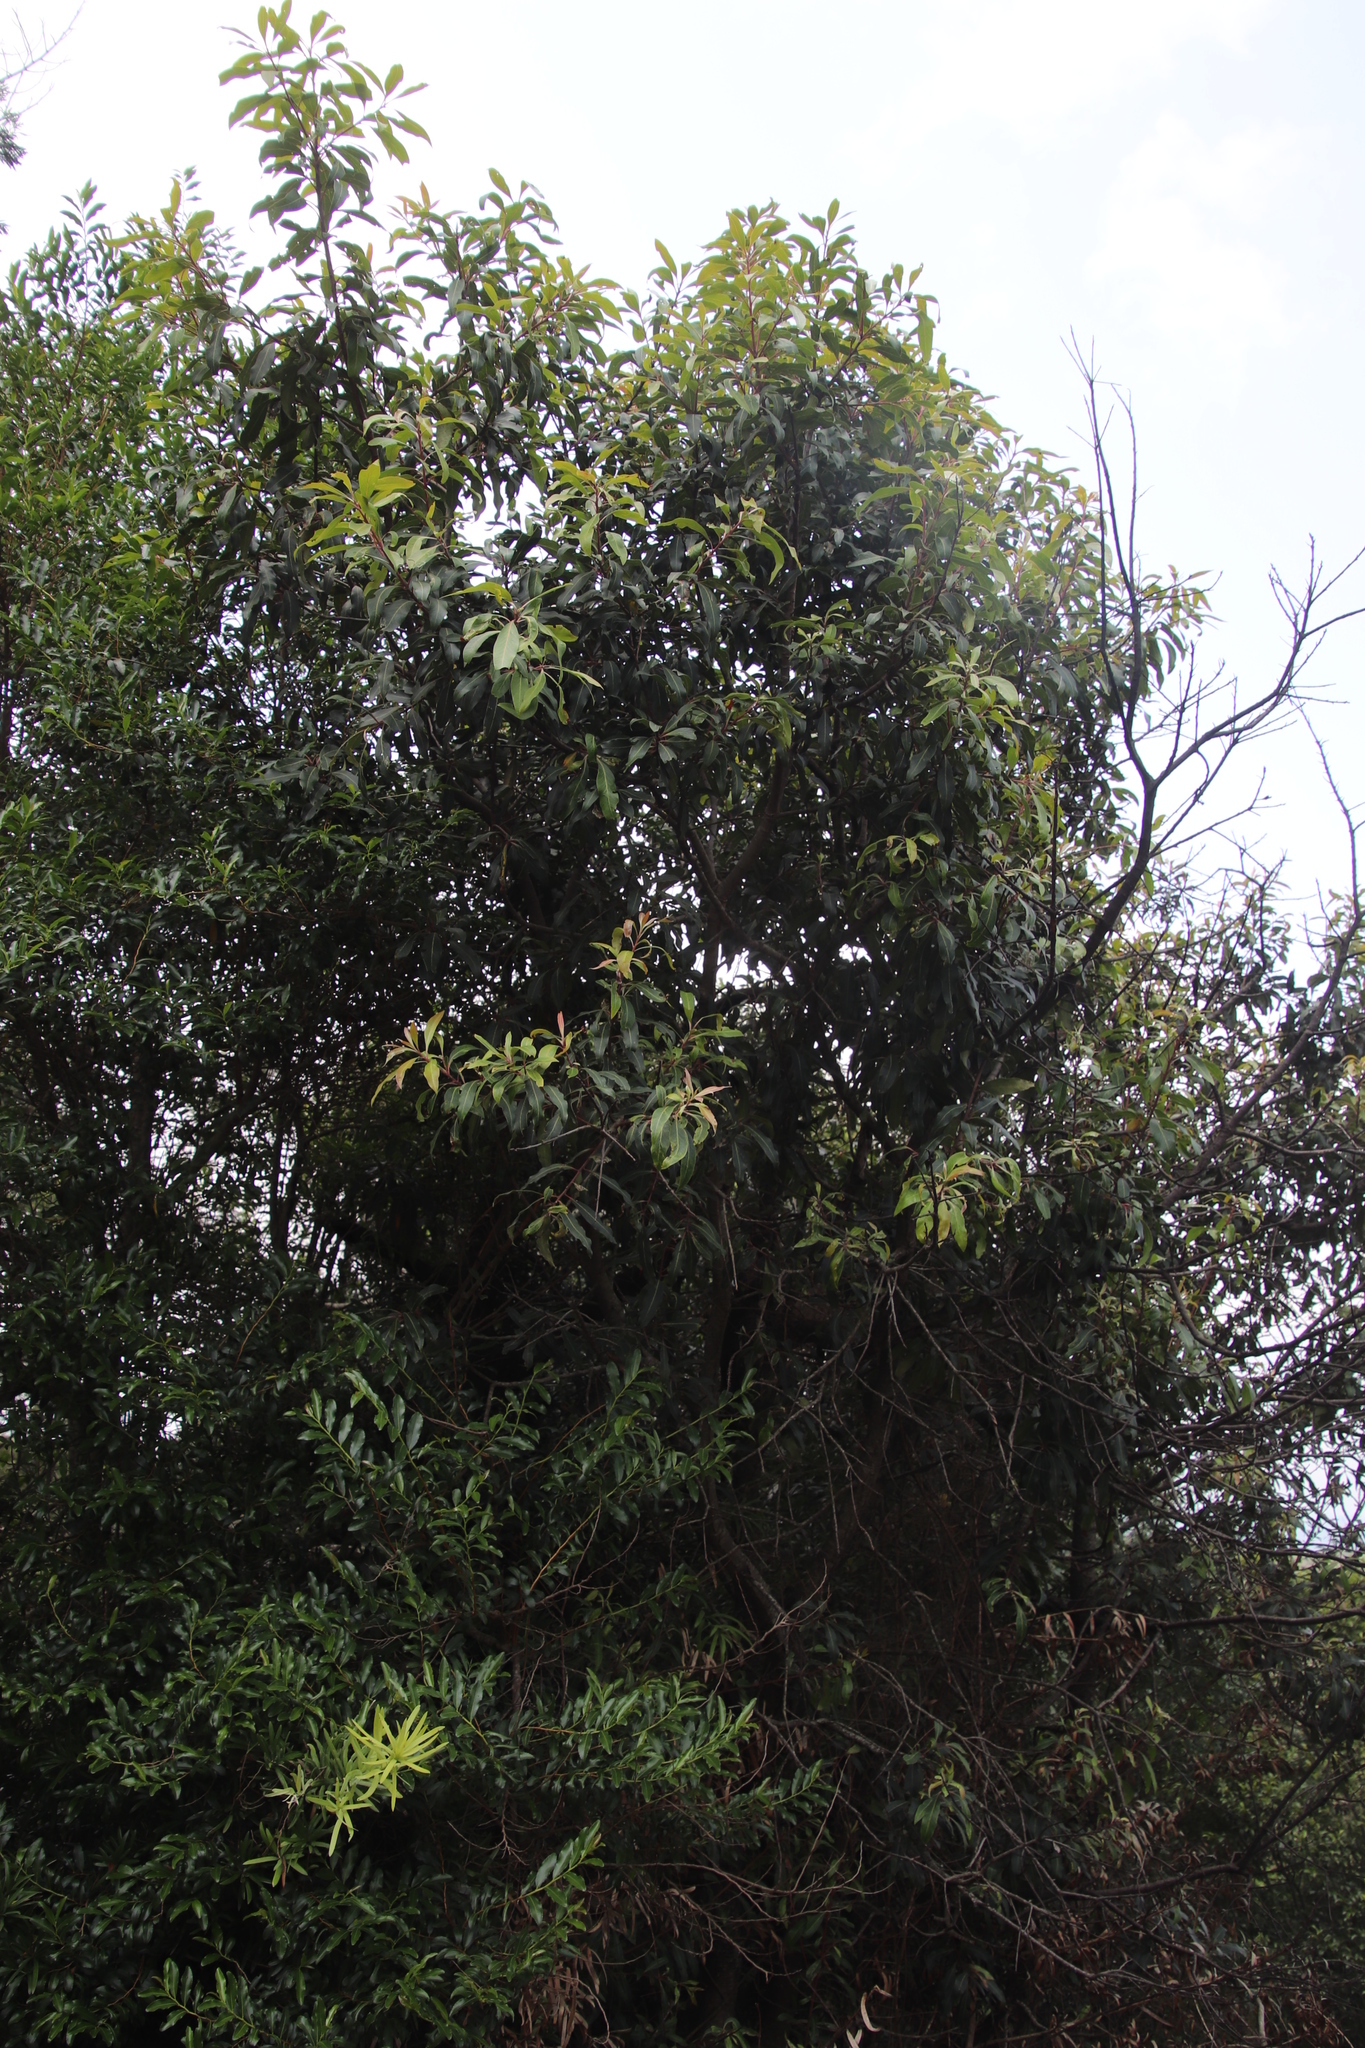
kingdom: Plantae
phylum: Tracheophyta
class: Magnoliopsida
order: Proteales
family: Proteaceae
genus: Faurea
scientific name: Faurea saligna
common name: African bean
